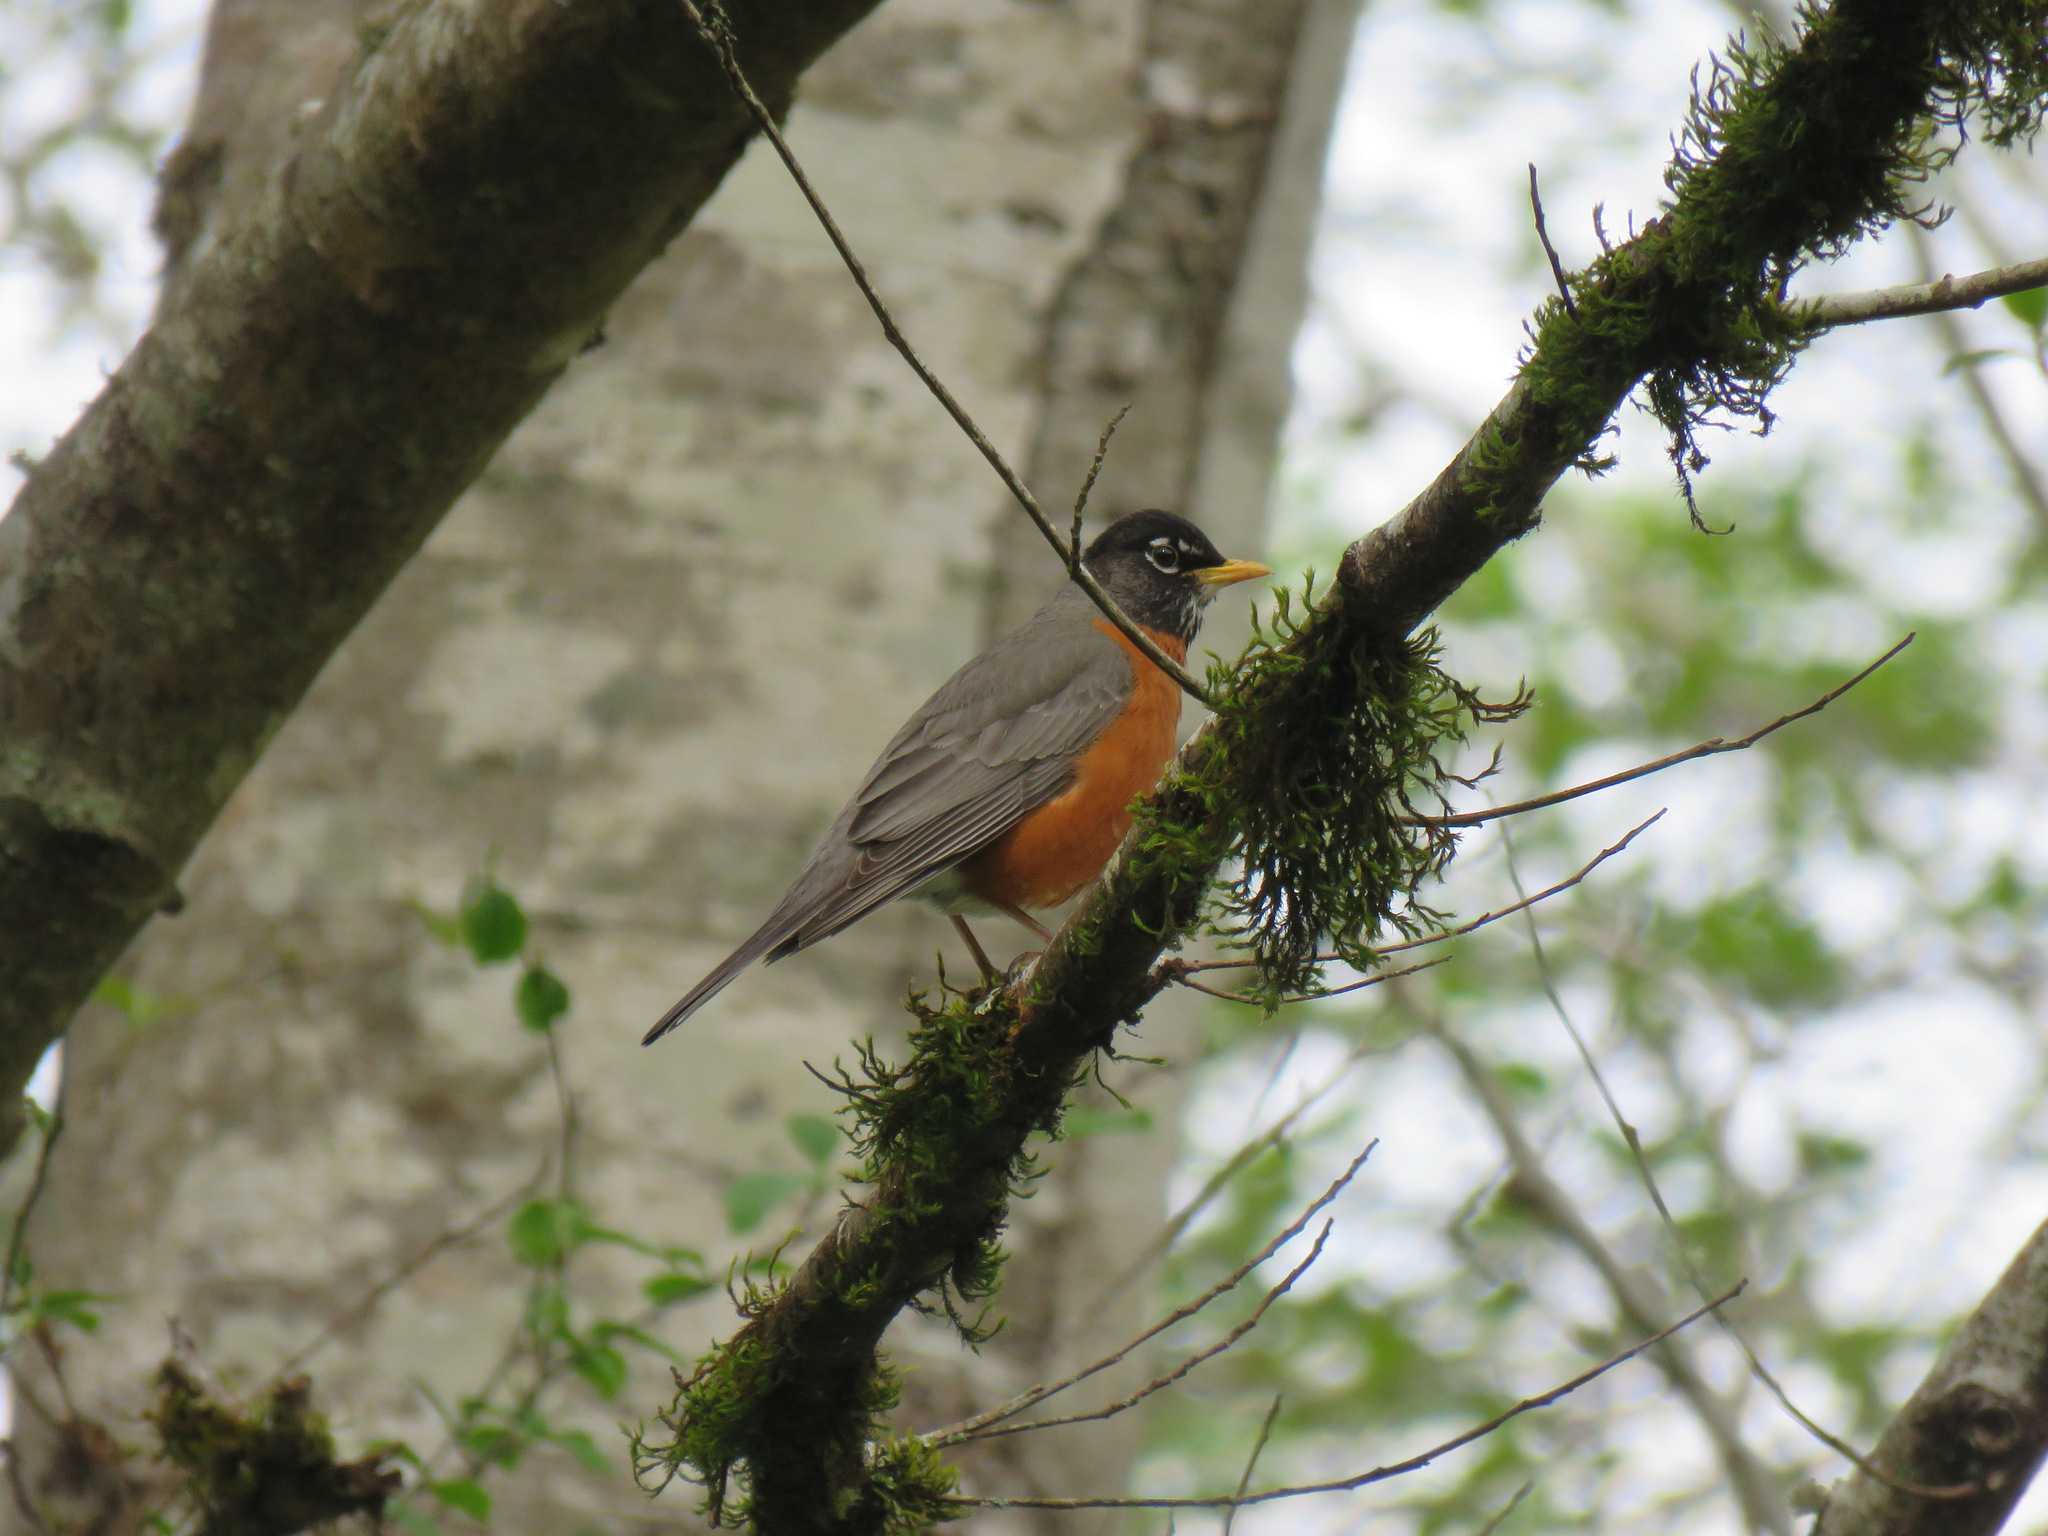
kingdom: Animalia
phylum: Chordata
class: Aves
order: Passeriformes
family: Turdidae
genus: Turdus
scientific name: Turdus migratorius
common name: American robin
